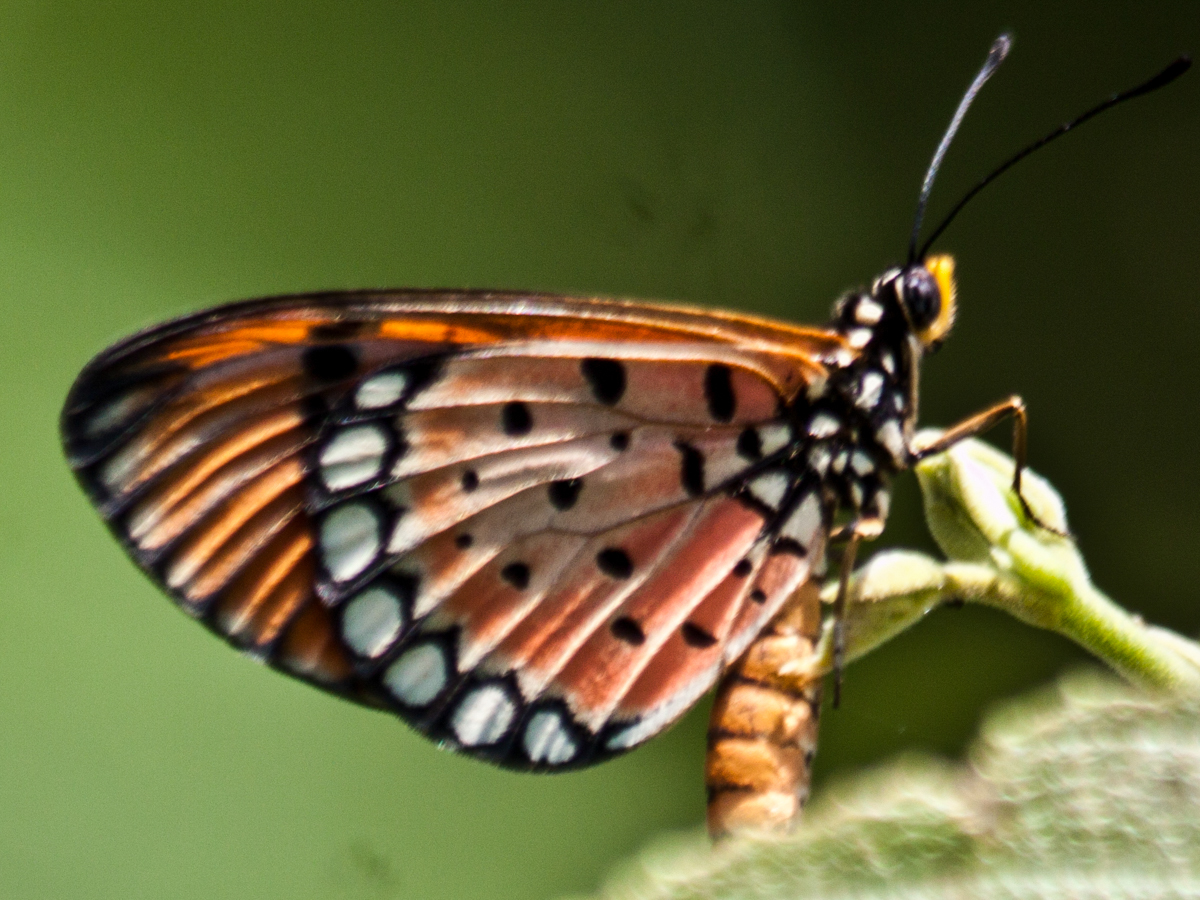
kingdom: Animalia
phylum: Arthropoda
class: Insecta
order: Lepidoptera
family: Nymphalidae
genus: Acraea
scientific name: Acraea terpsicore
